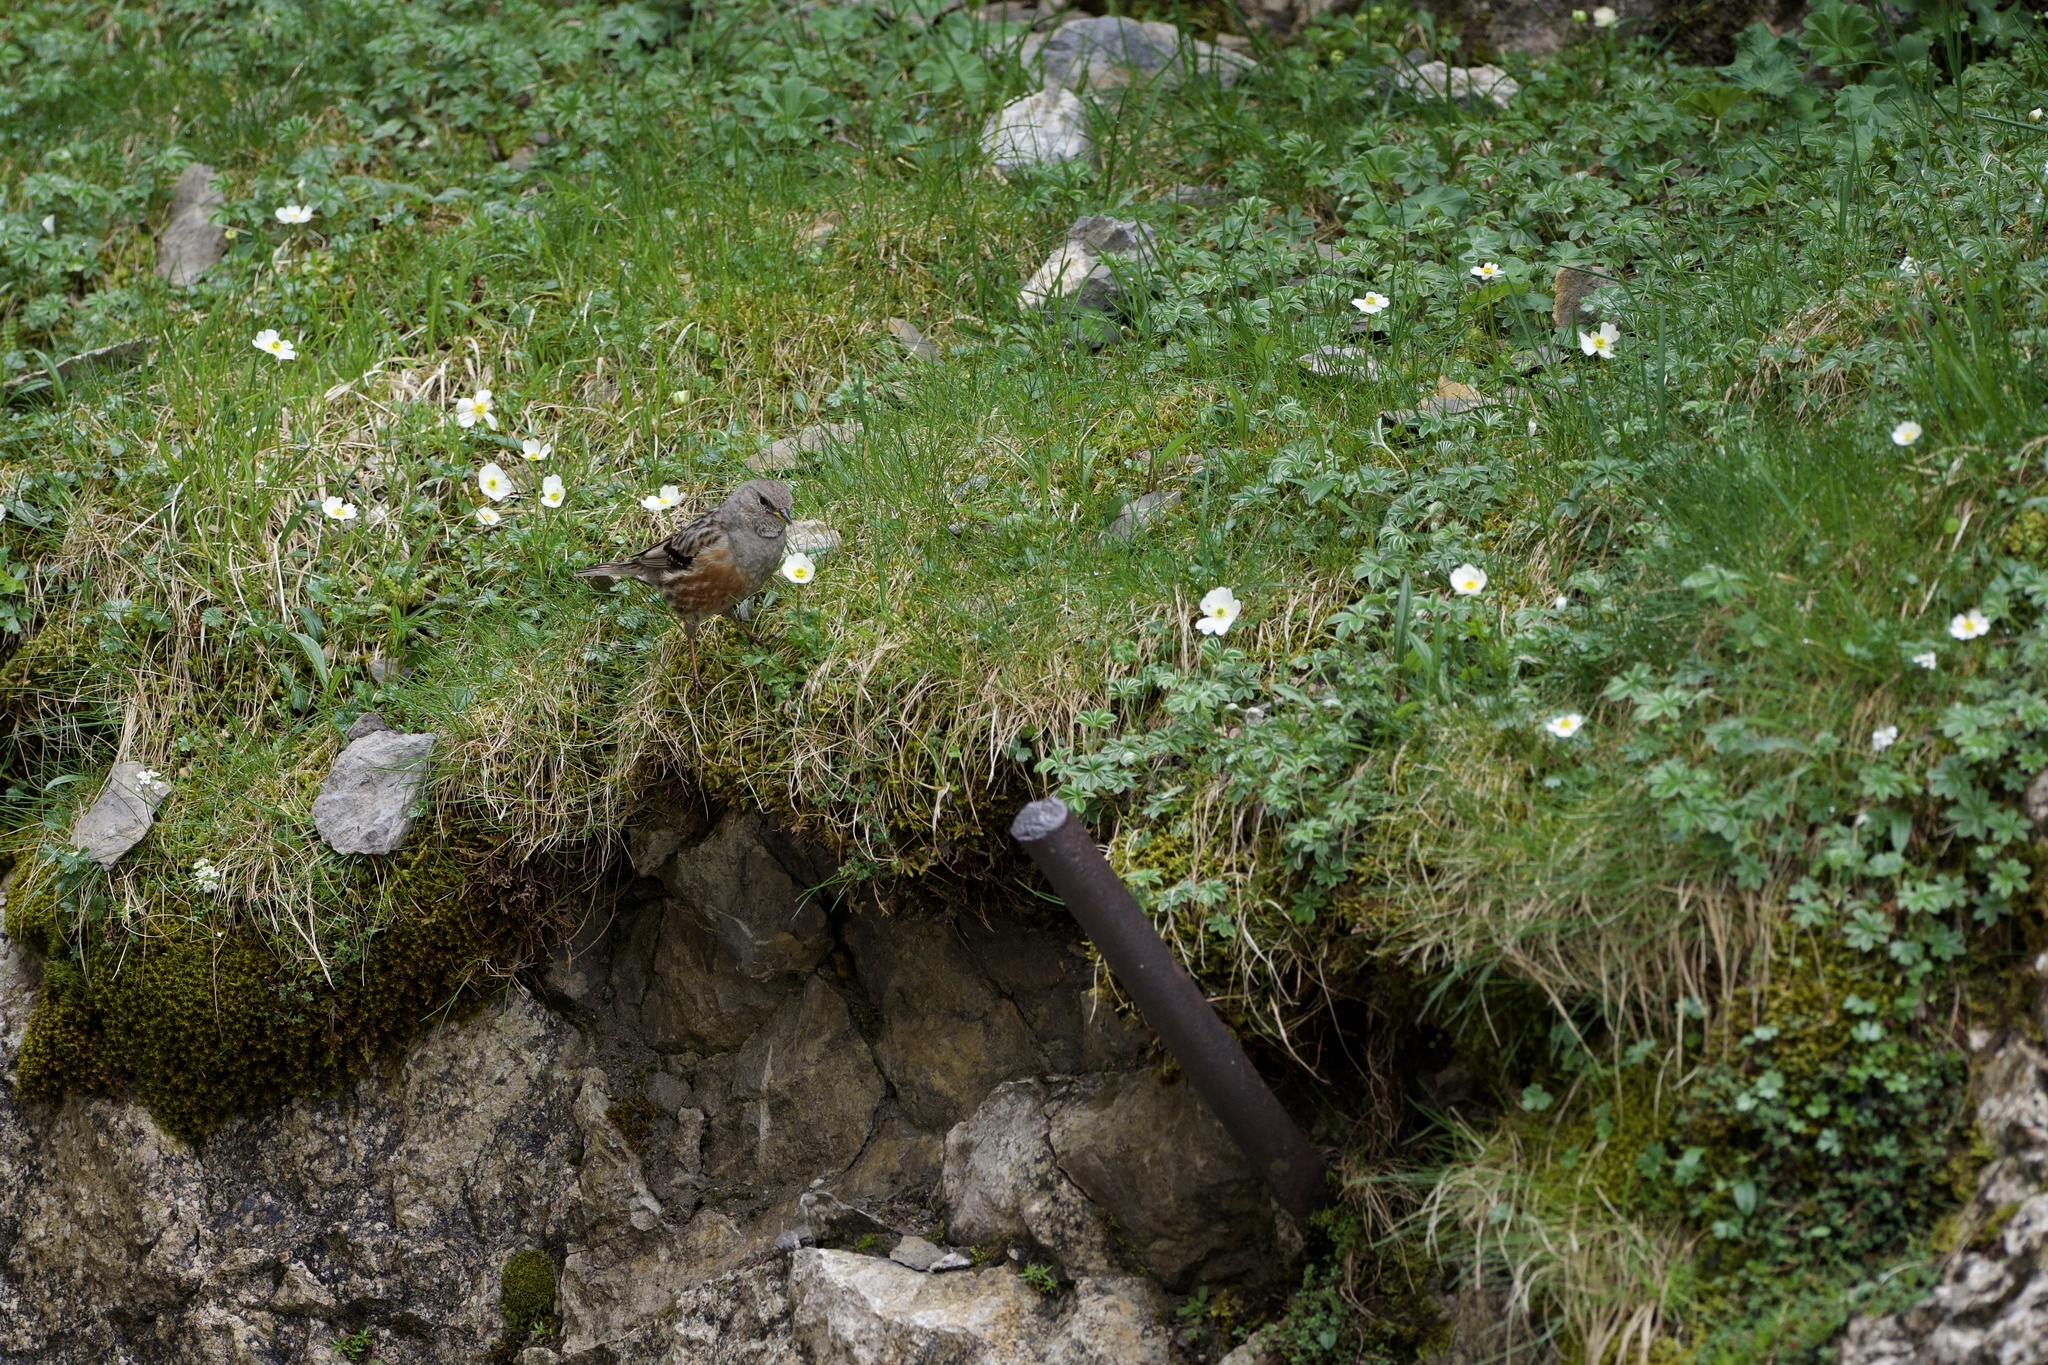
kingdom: Animalia
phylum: Chordata
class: Aves
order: Passeriformes
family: Prunellidae
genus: Prunella
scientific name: Prunella collaris
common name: Alpine accentor
